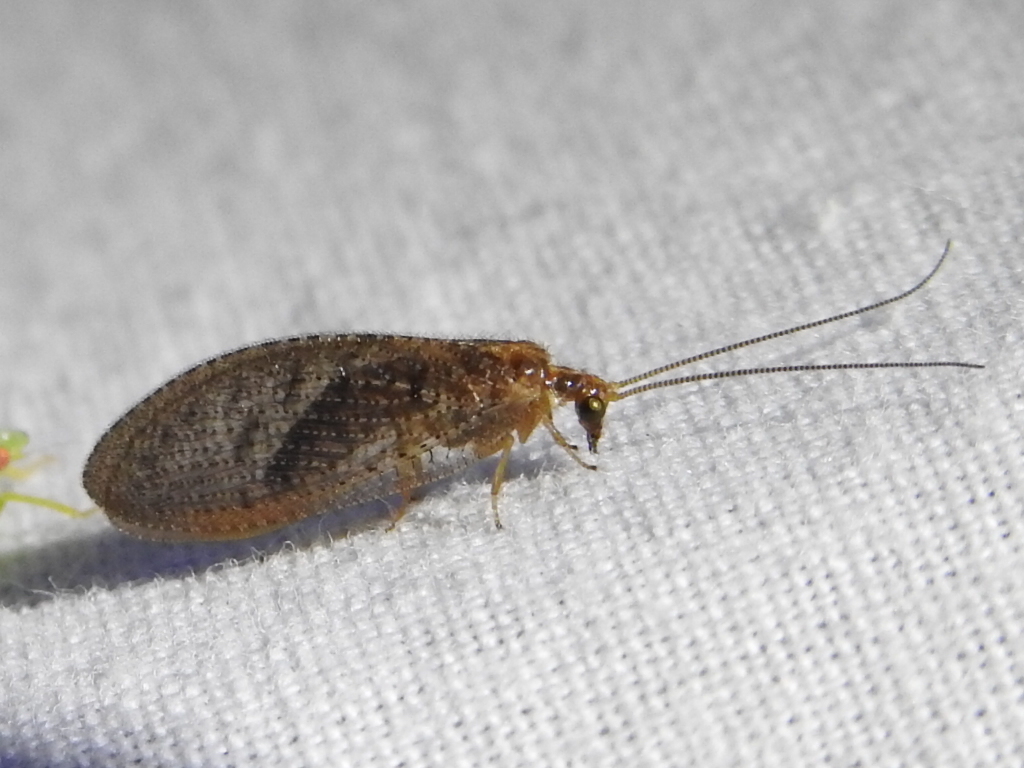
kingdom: Animalia
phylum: Arthropoda
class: Insecta
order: Neuroptera
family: Hemerobiidae
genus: Hemerobius
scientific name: Hemerobius stigma
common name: Brown pine lacewing
